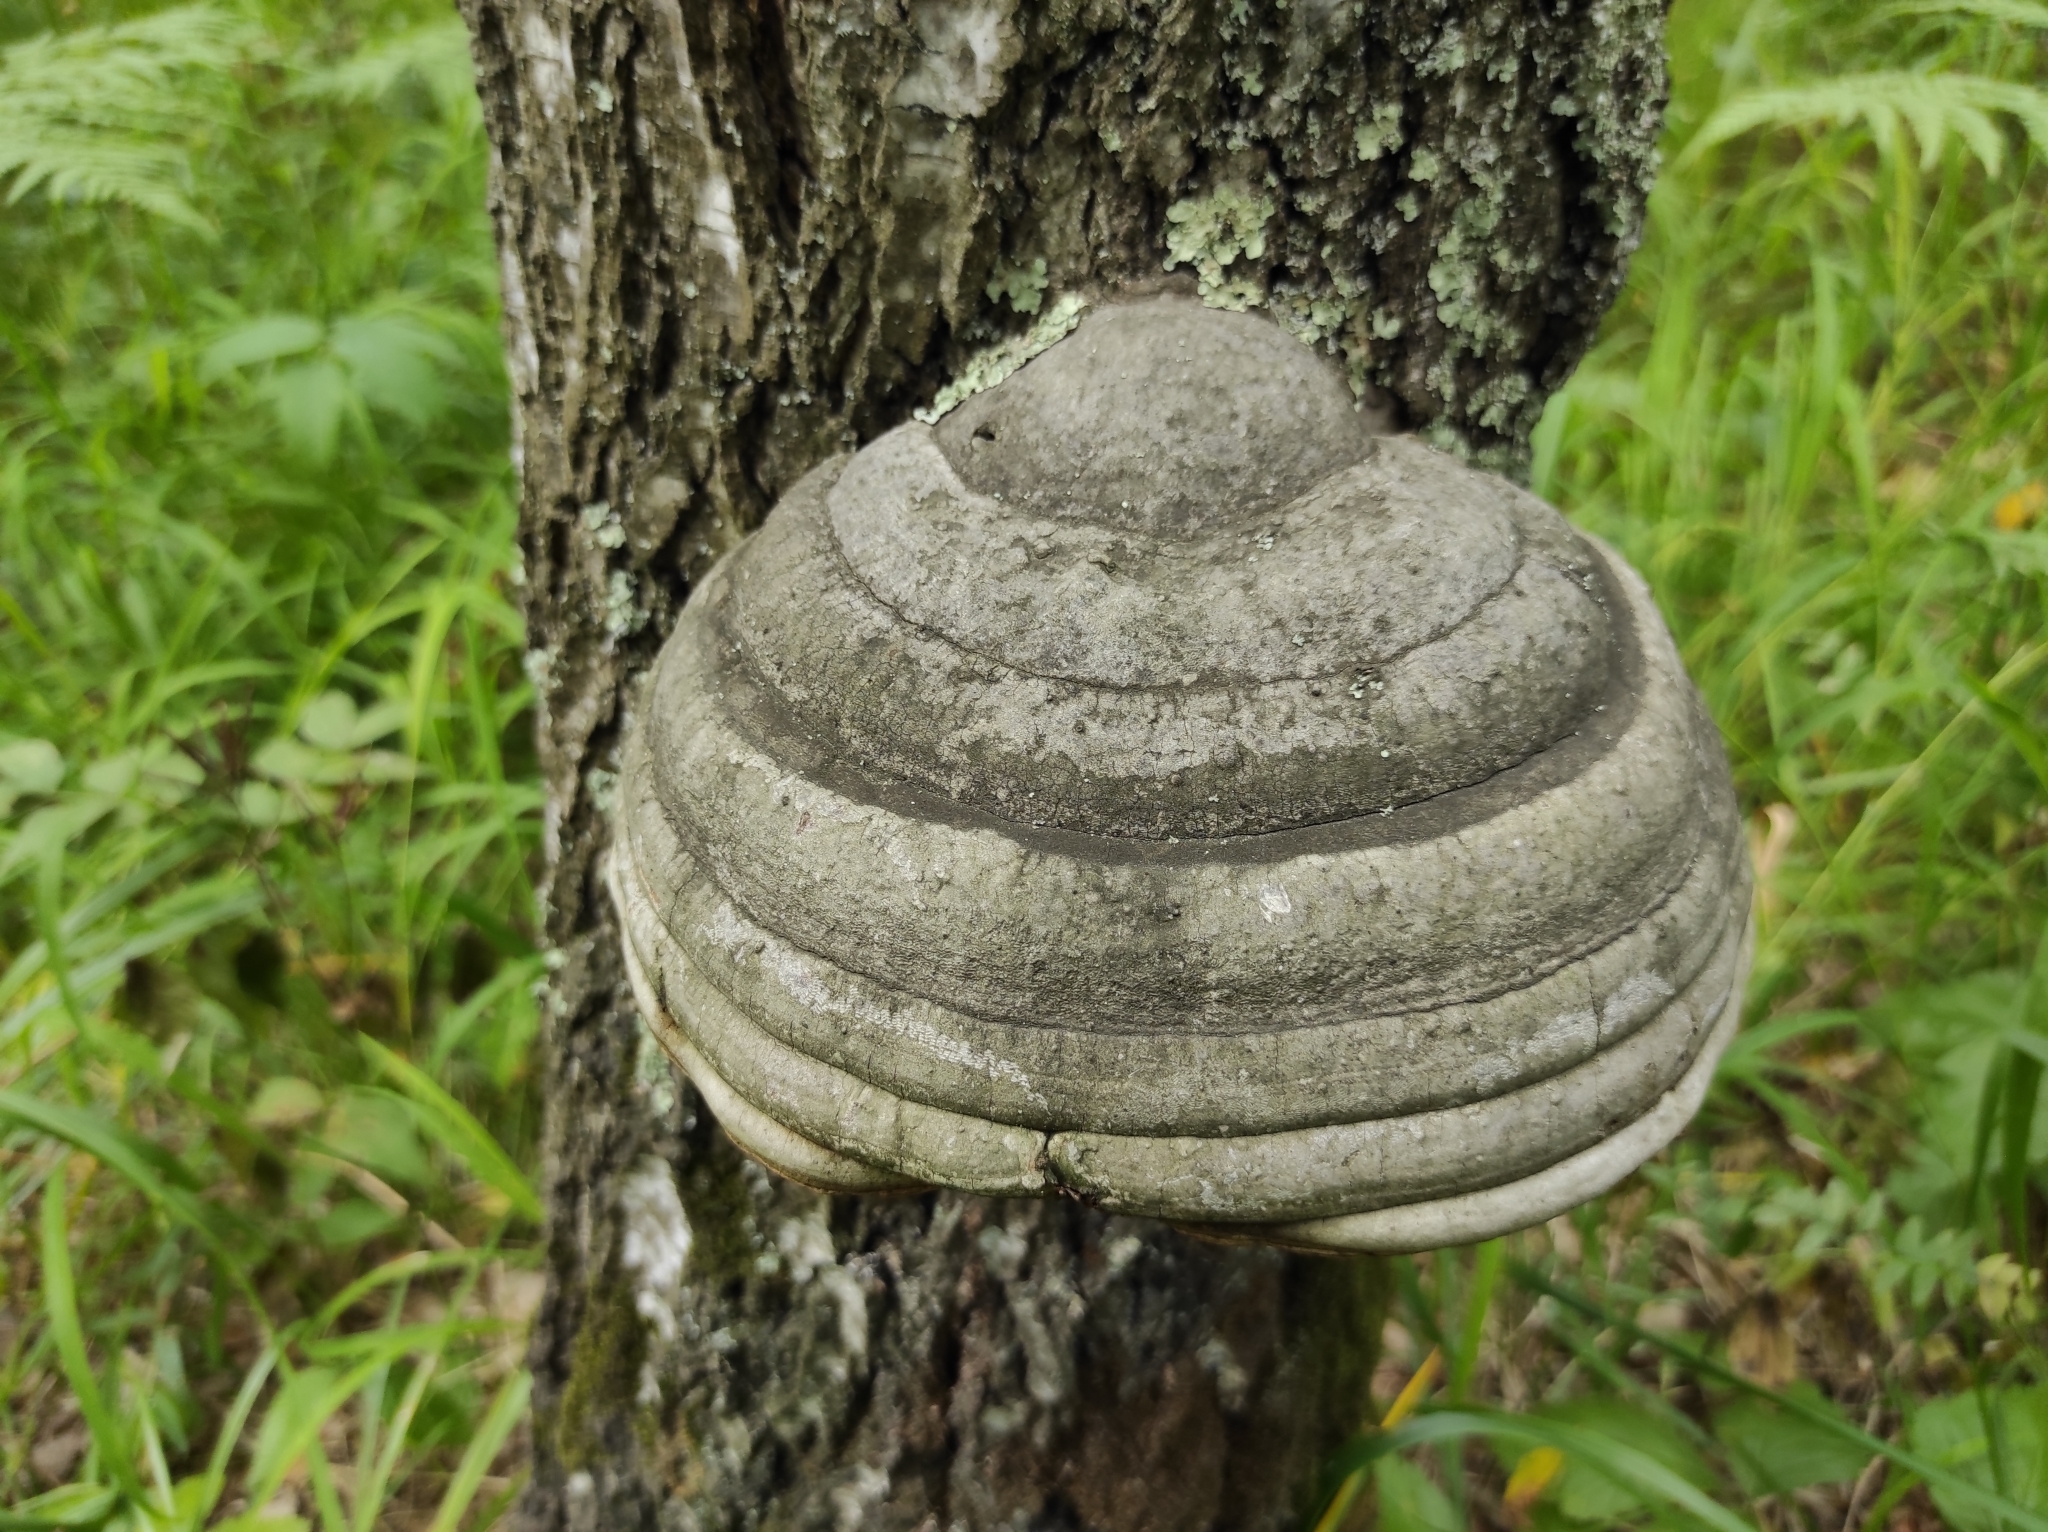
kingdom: Fungi
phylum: Basidiomycota
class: Agaricomycetes
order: Polyporales
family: Polyporaceae
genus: Fomes
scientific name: Fomes fomentarius
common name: Hoof fungus
